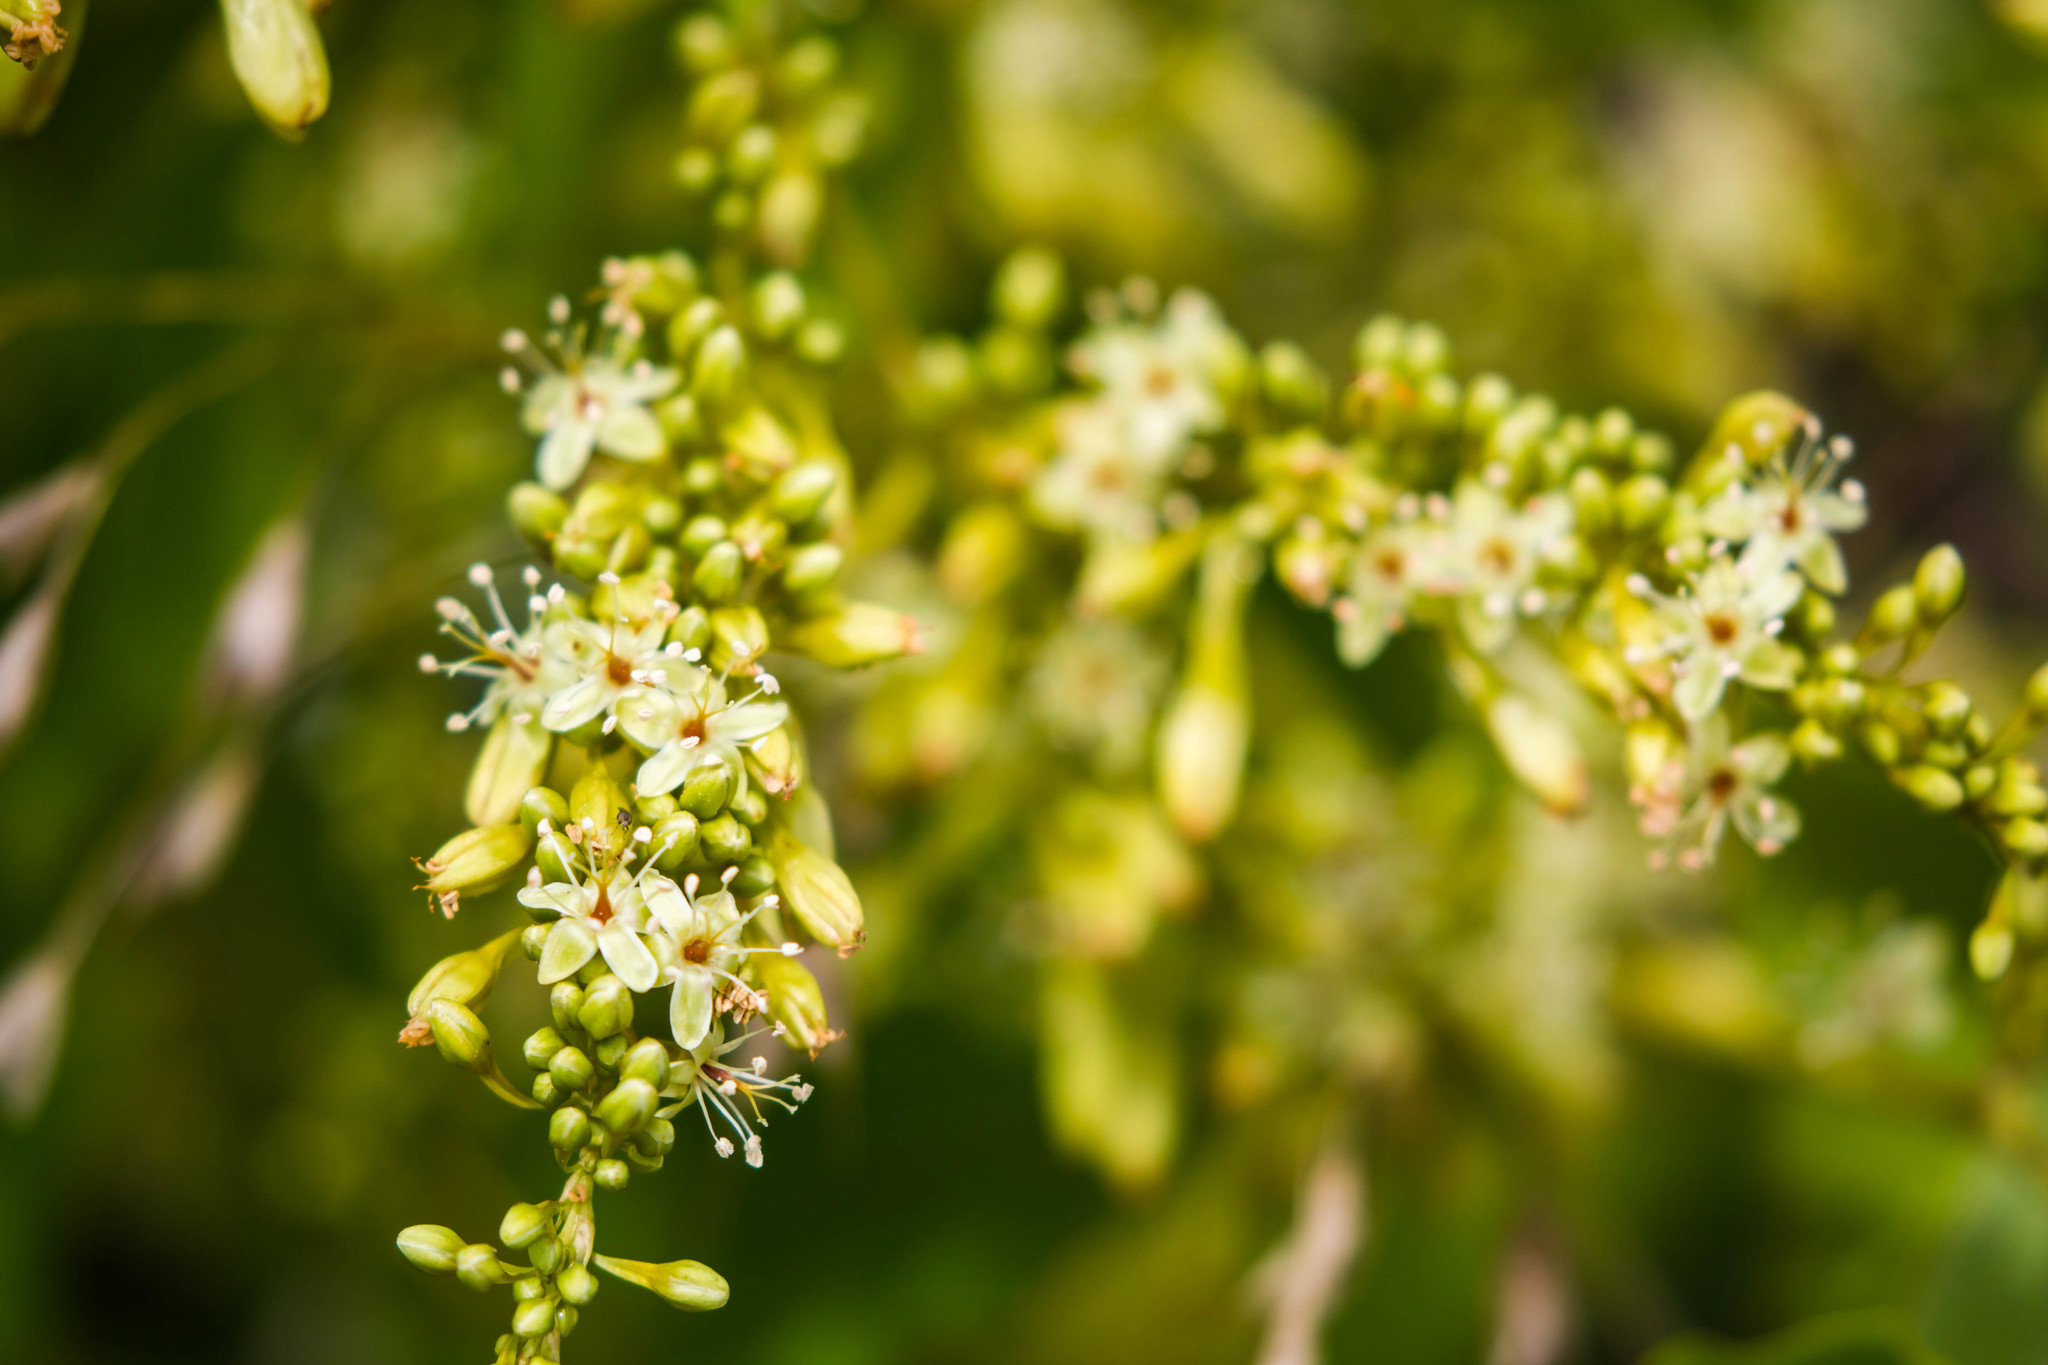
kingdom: Plantae
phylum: Tracheophyta
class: Magnoliopsida
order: Caryophyllales
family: Polygonaceae
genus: Brunnichia
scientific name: Brunnichia ovata
